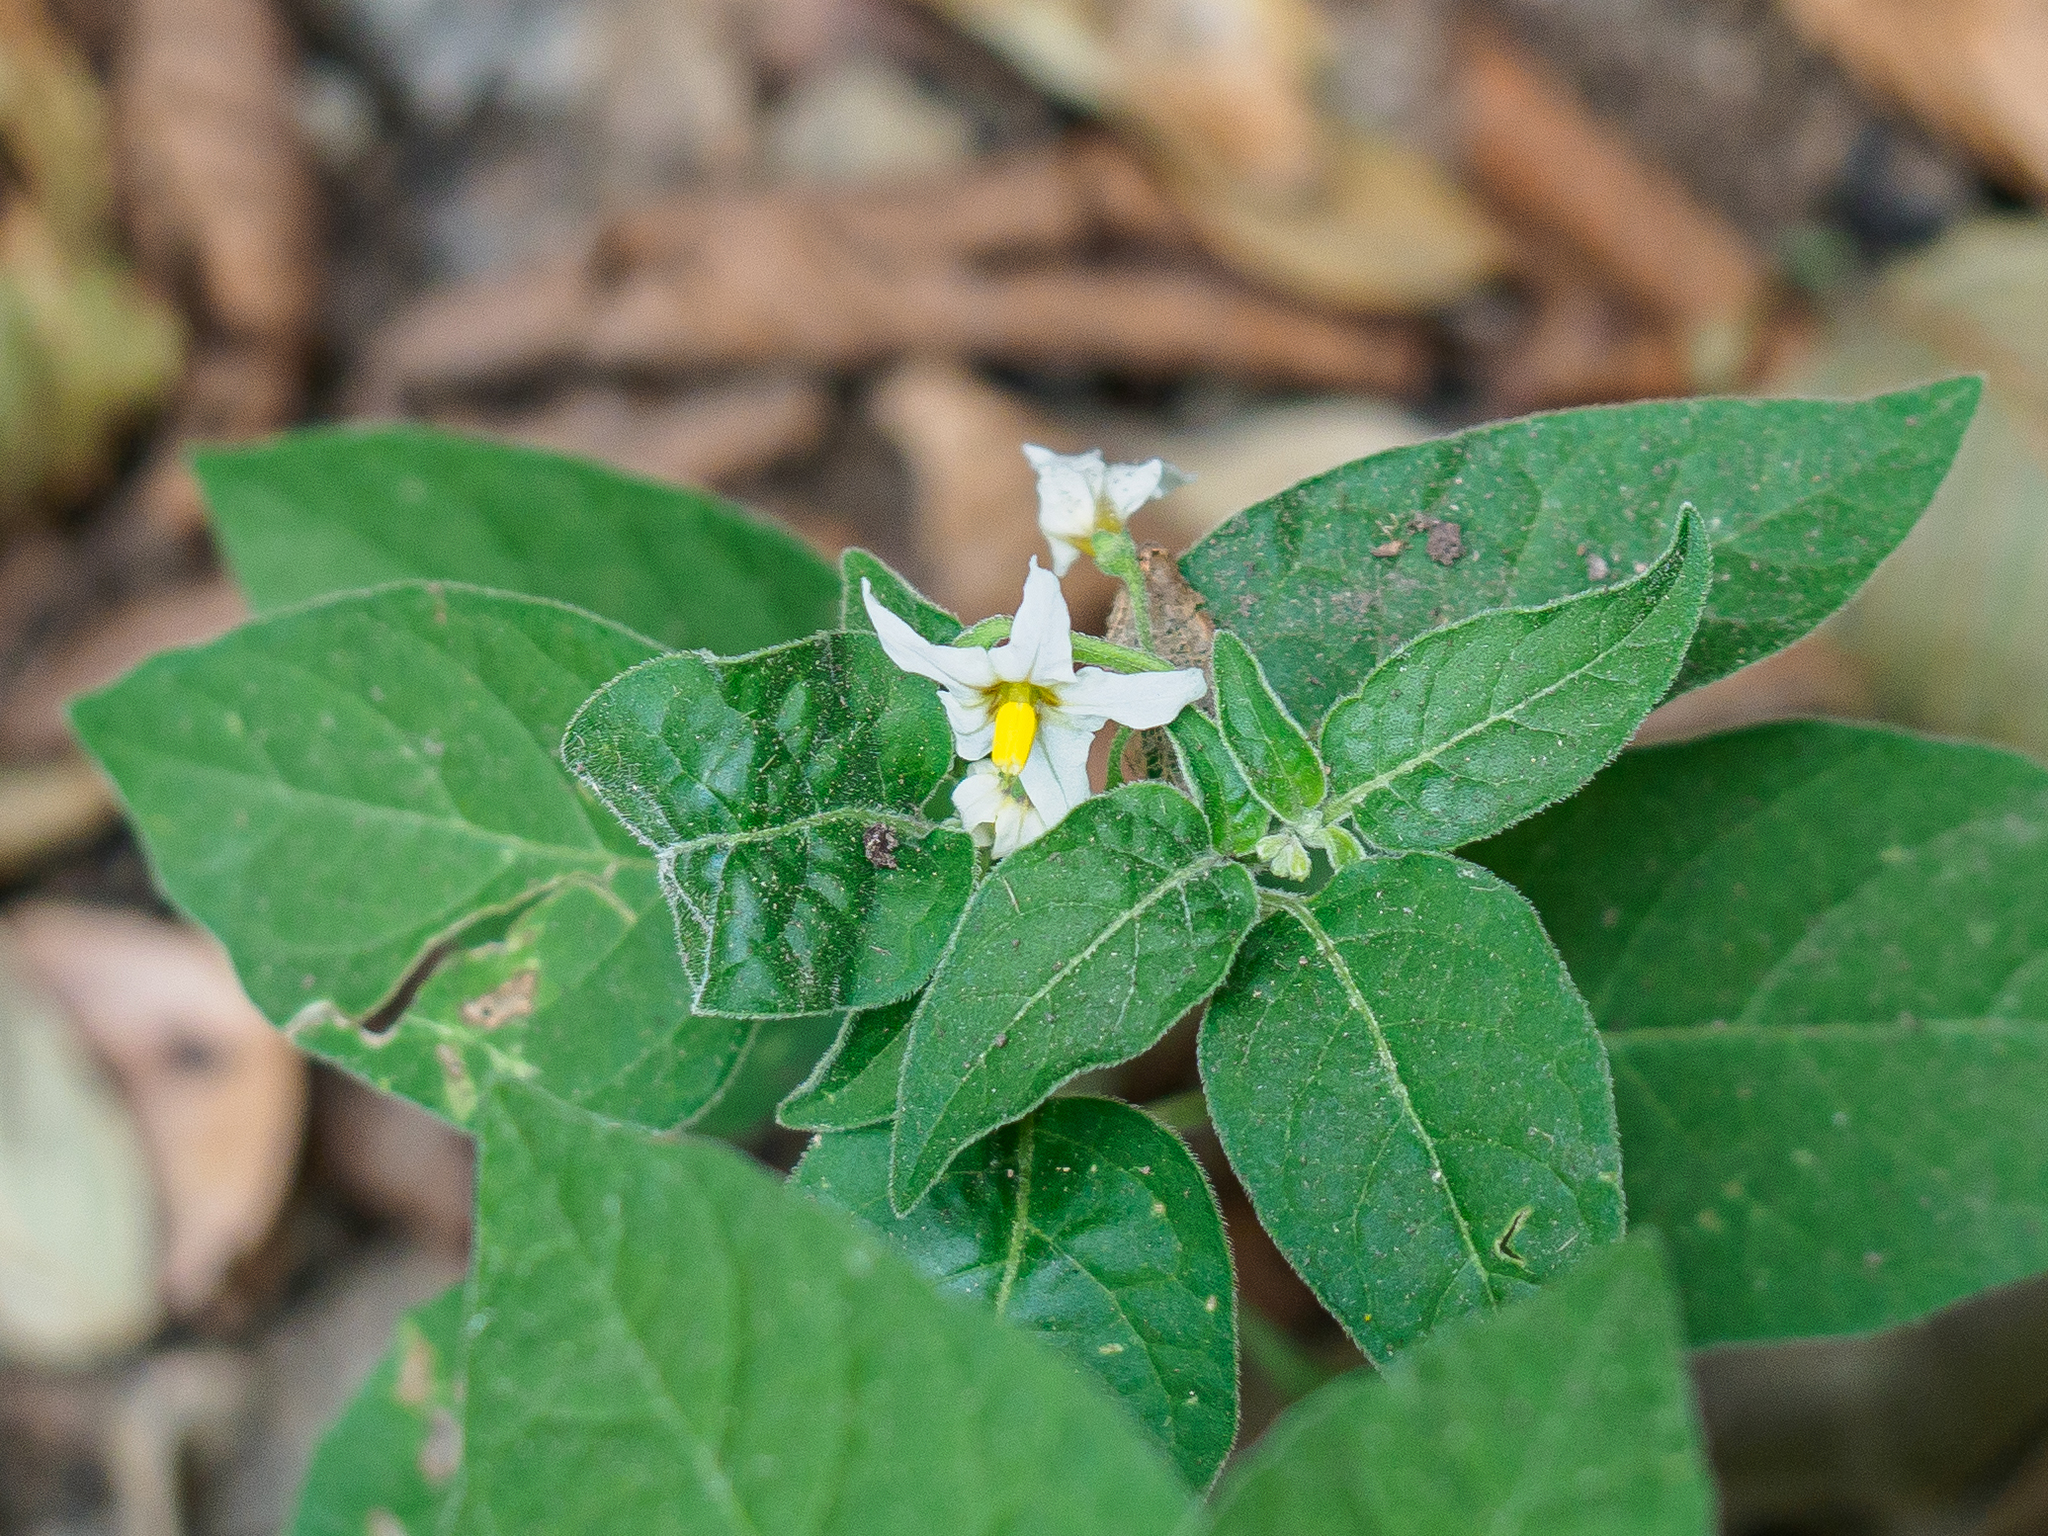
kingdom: Plantae
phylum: Tracheophyta
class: Magnoliopsida
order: Solanales
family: Solanaceae
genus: Solanum
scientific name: Solanum chenopodioides
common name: Tall nightshade
